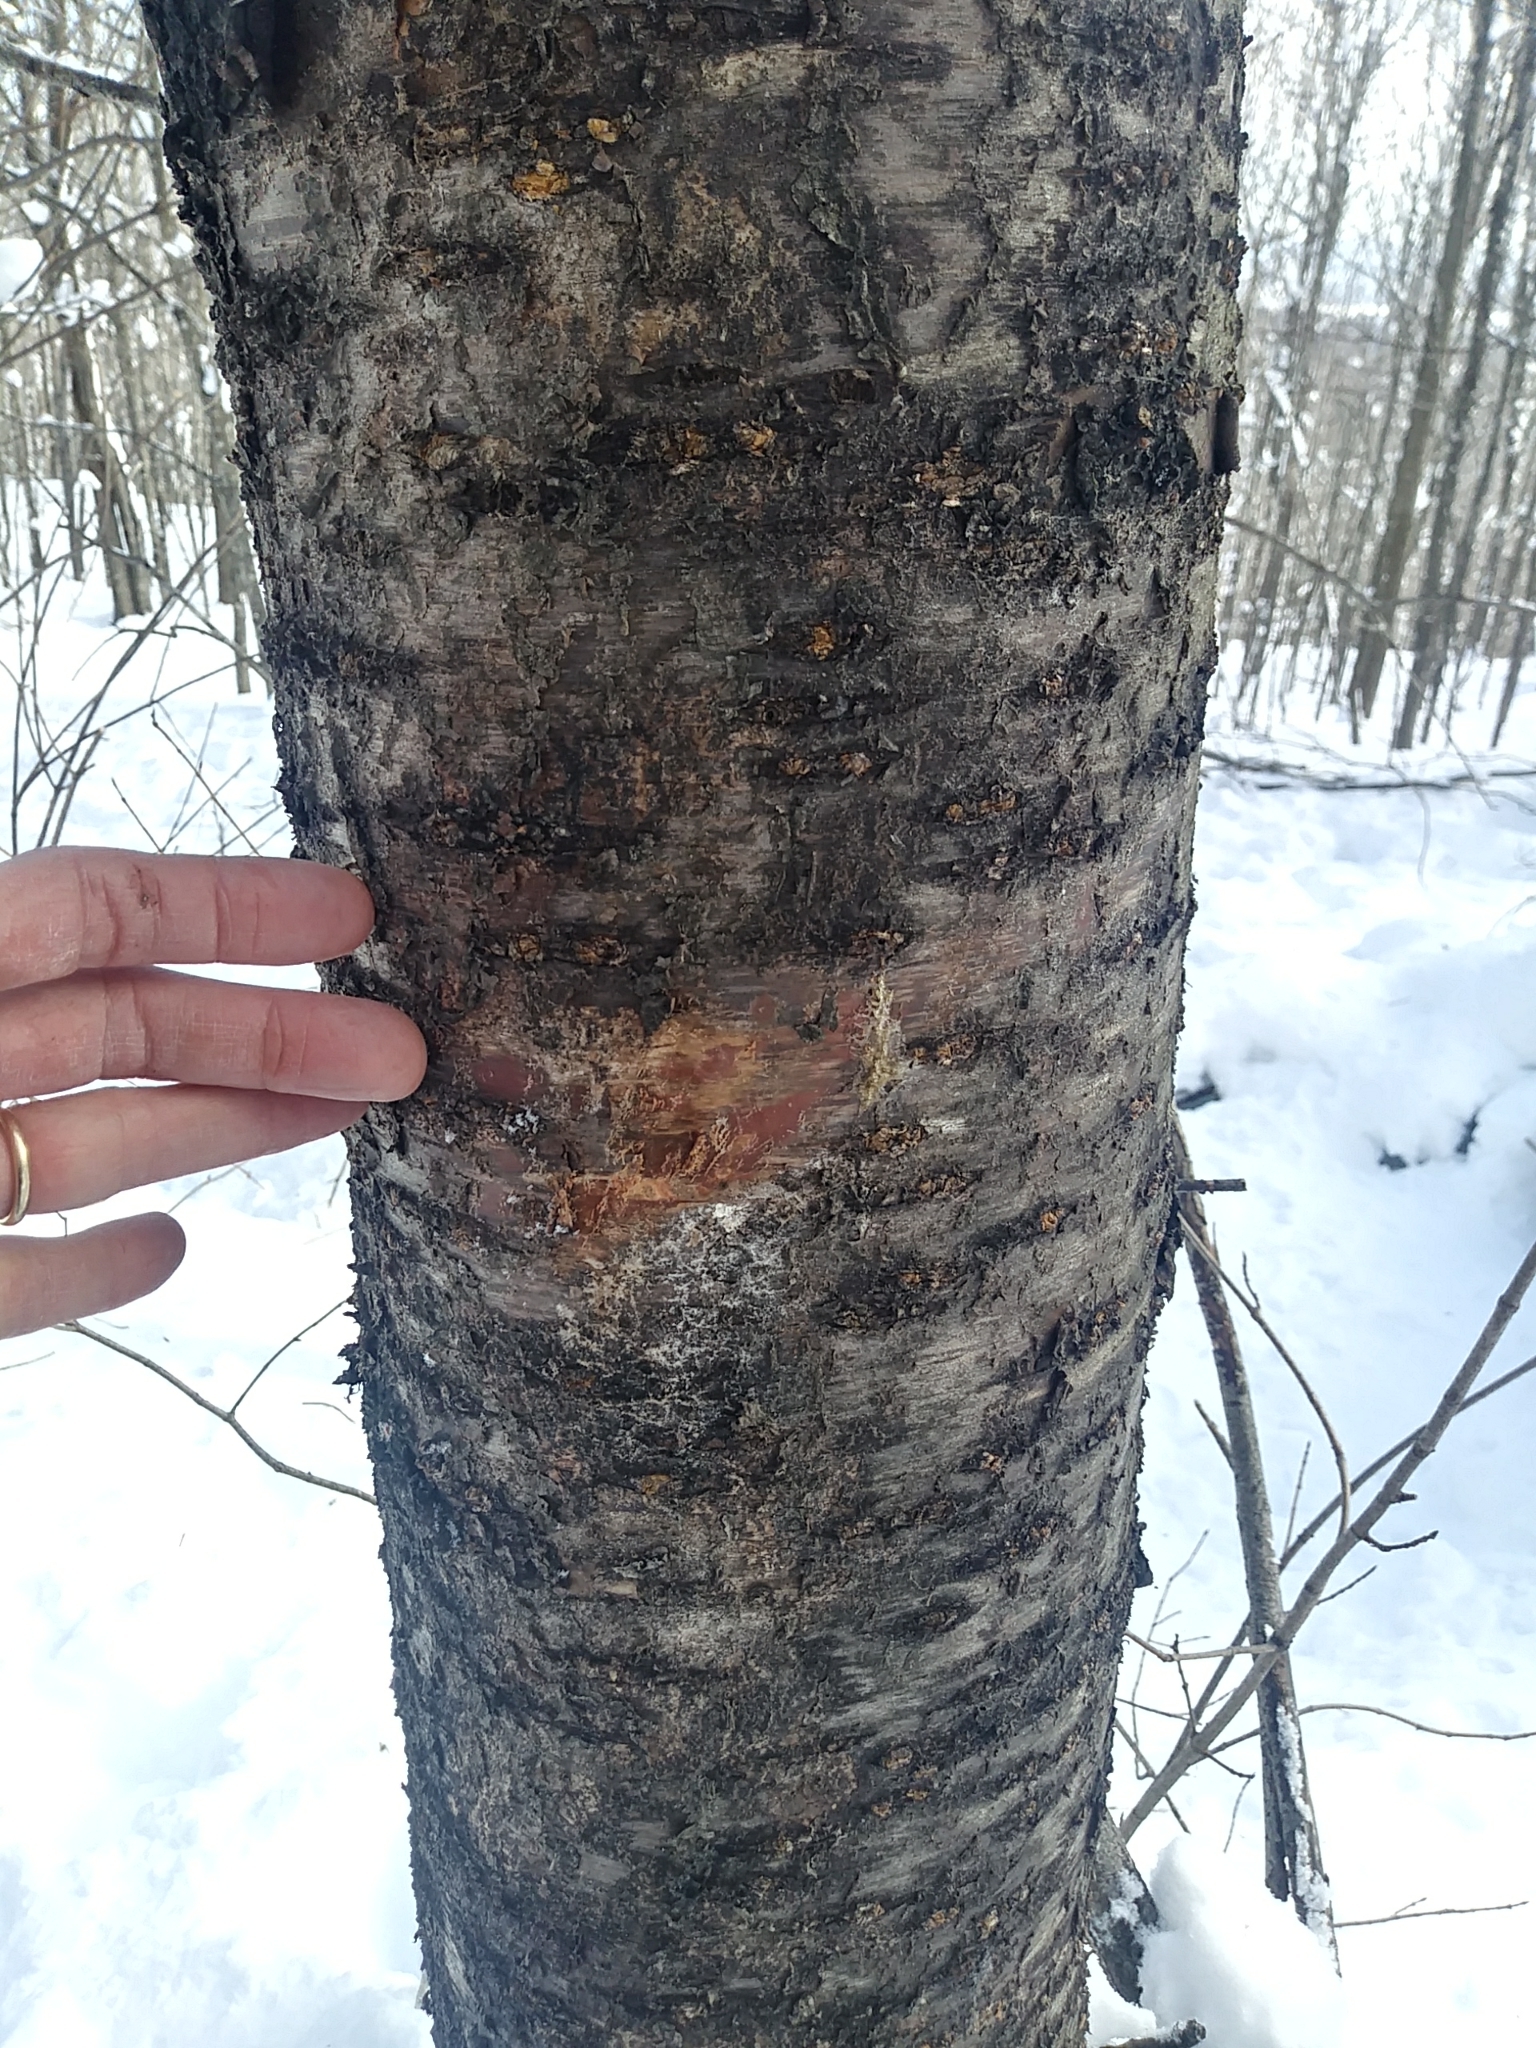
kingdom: Plantae
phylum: Tracheophyta
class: Magnoliopsida
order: Rosales
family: Rosaceae
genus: Prunus
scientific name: Prunus pensylvanica
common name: Pin cherry
